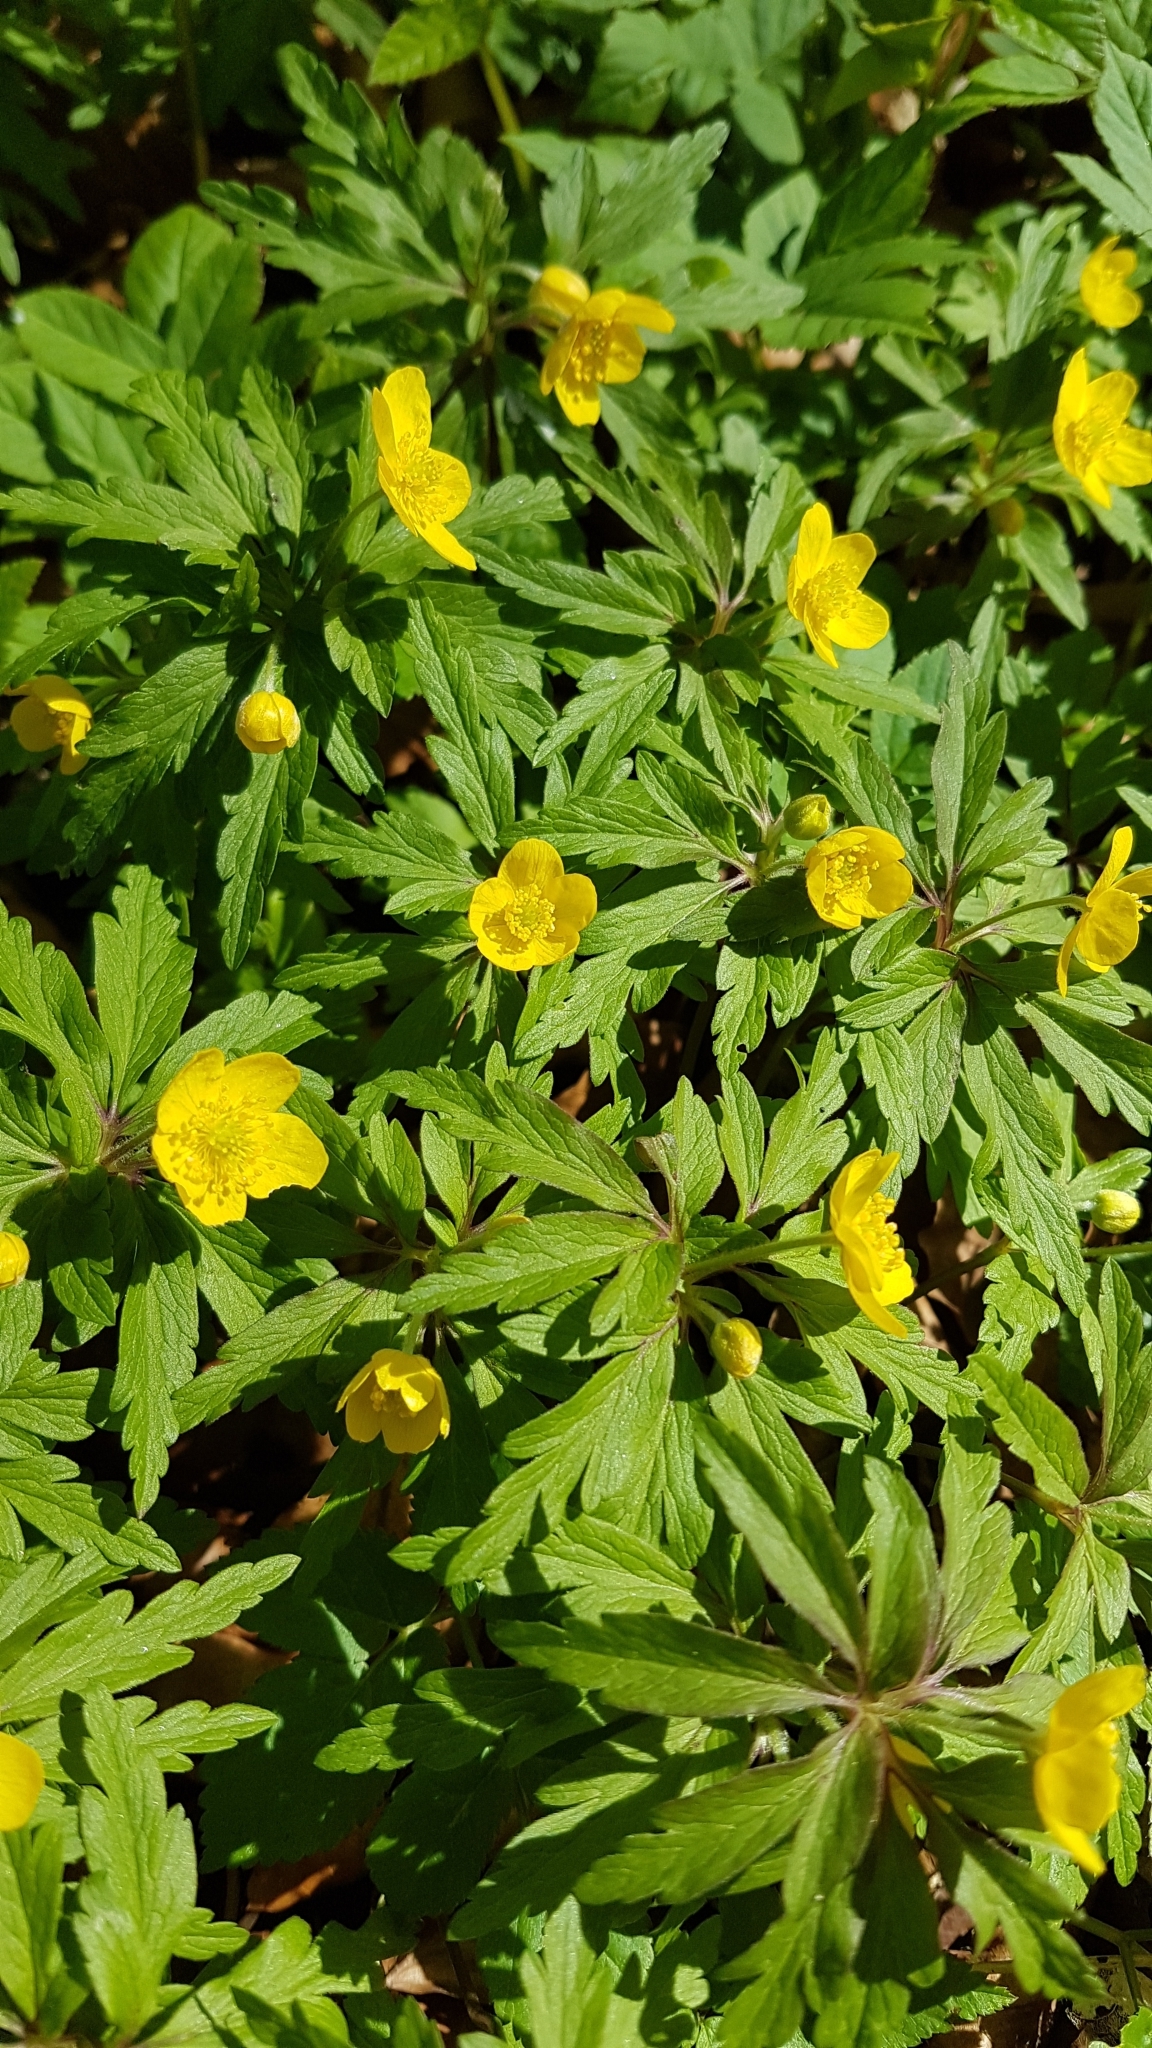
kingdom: Plantae
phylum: Tracheophyta
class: Magnoliopsida
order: Ranunculales
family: Ranunculaceae
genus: Anemone
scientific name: Anemone ranunculoides
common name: Yellow anemone
